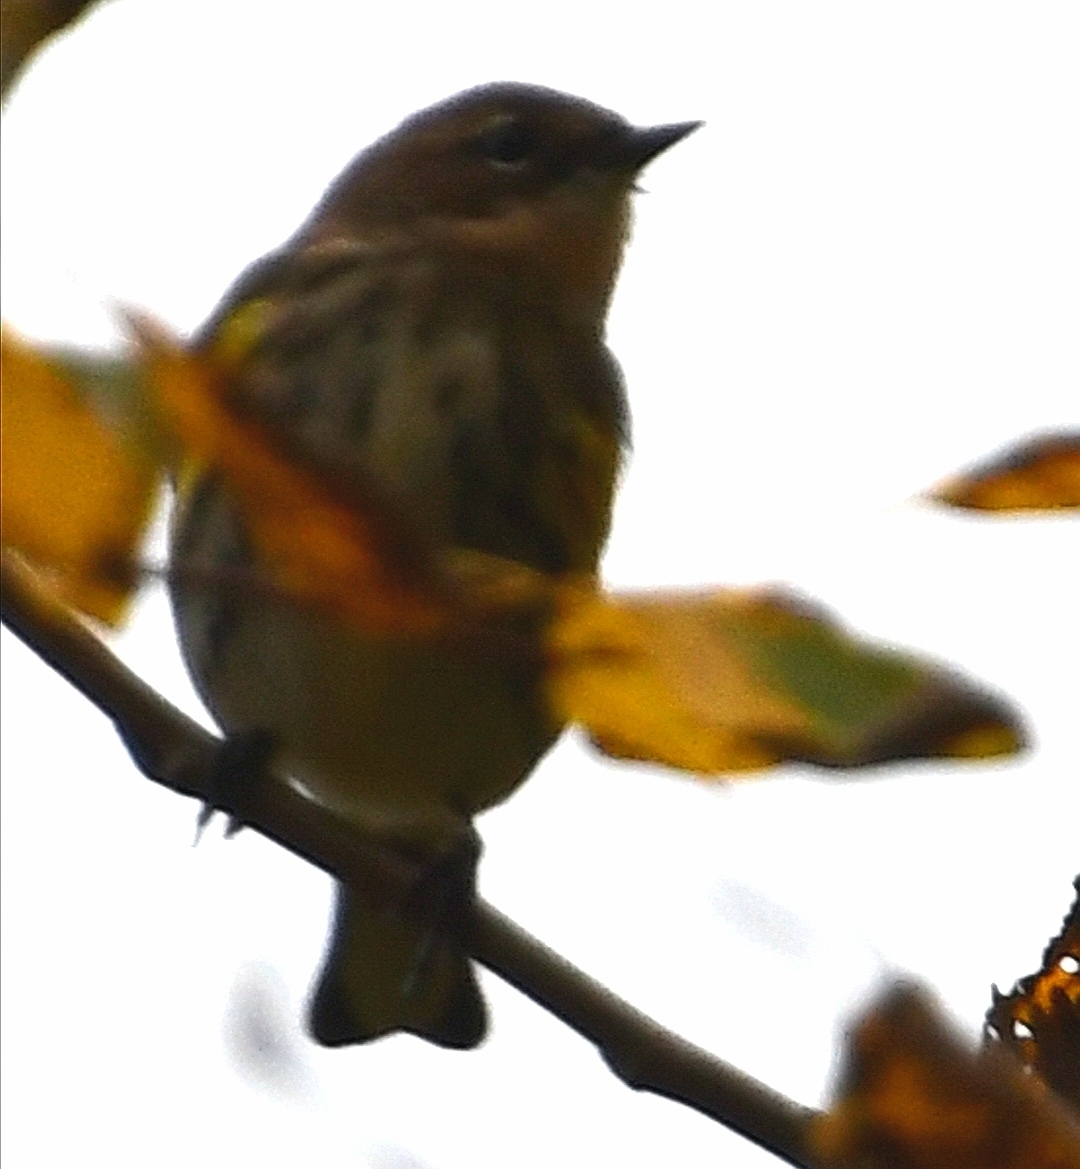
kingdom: Animalia
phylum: Chordata
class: Aves
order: Passeriformes
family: Parulidae
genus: Setophaga
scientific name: Setophaga coronata
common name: Myrtle warbler
